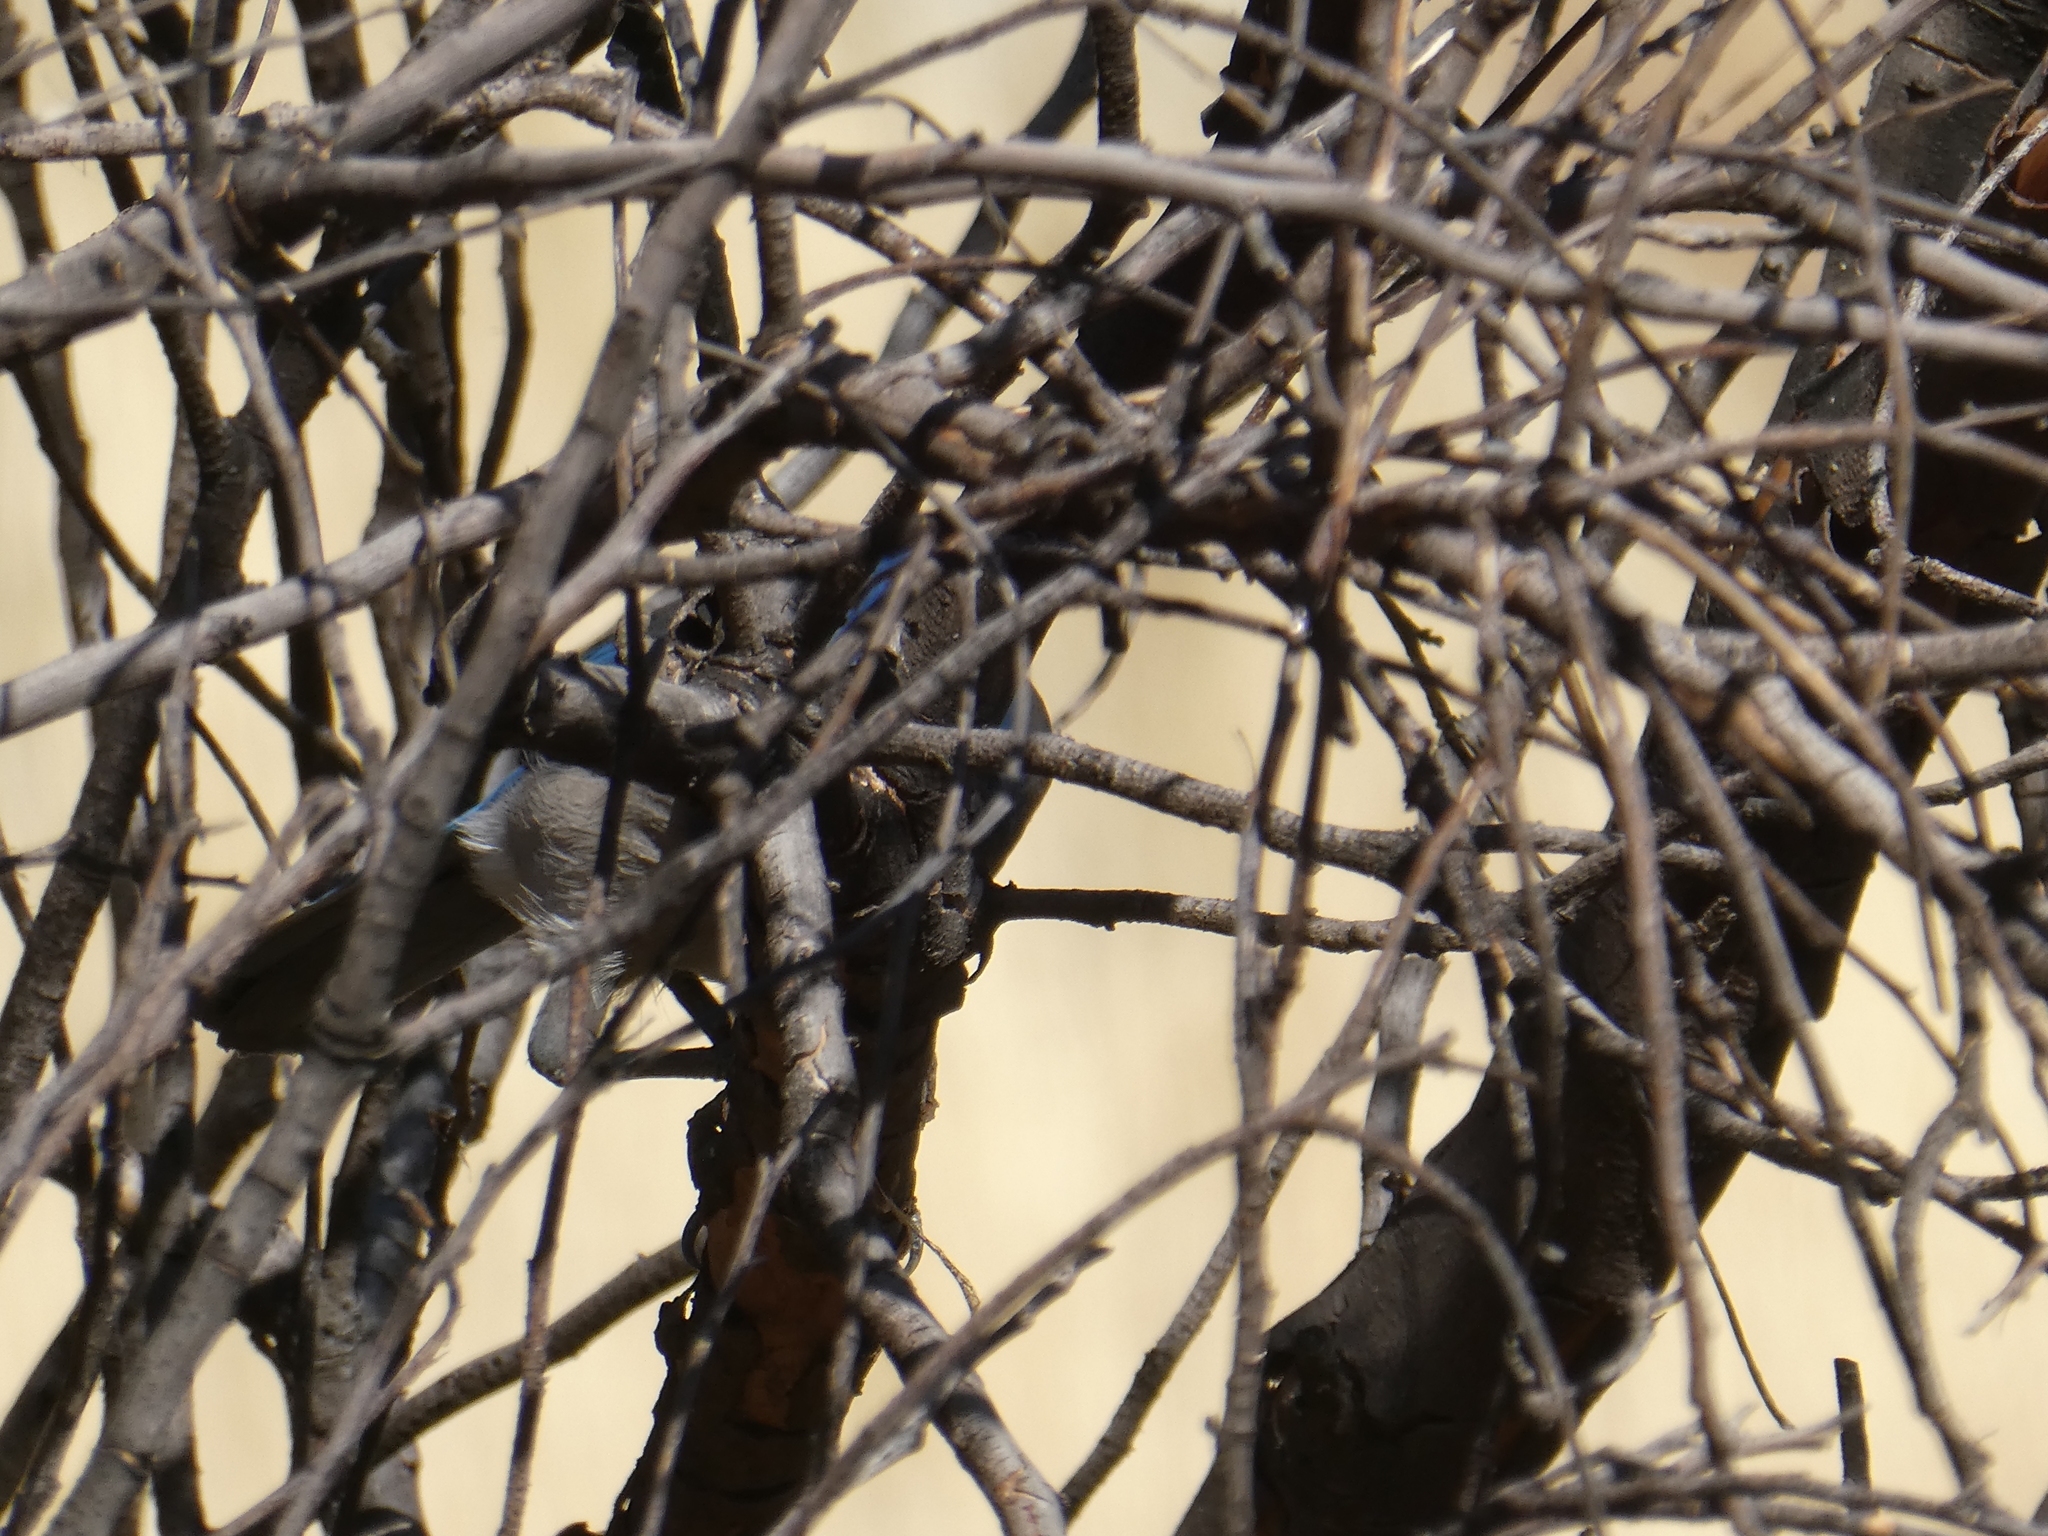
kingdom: Animalia
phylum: Chordata
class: Aves
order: Passeriformes
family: Corvidae
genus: Aphelocoma
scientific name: Aphelocoma californica
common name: California scrub-jay
